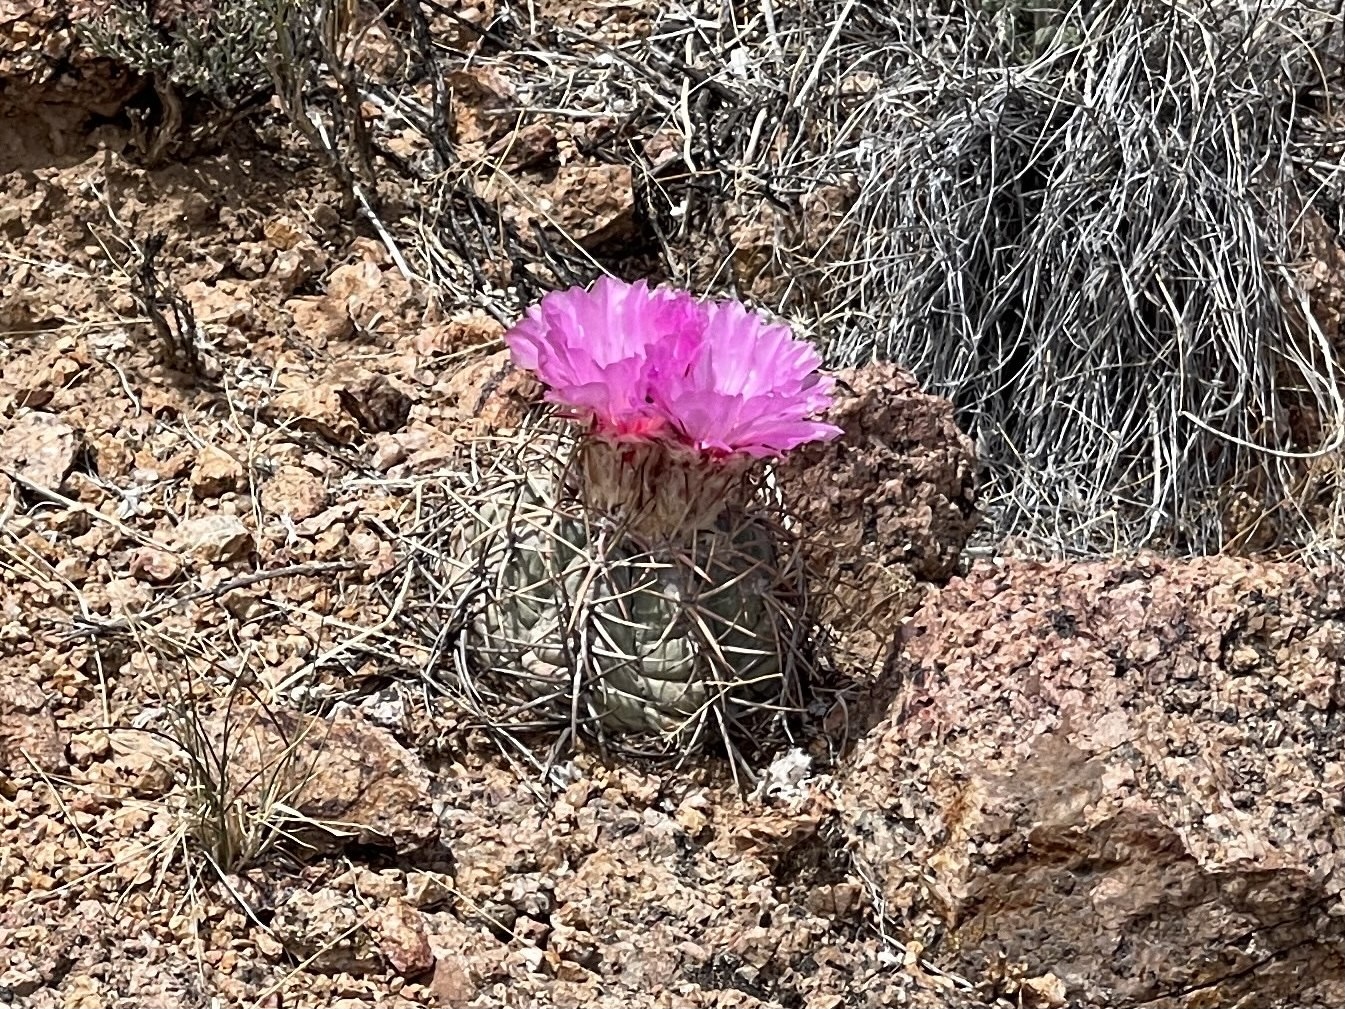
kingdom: Plantae
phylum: Tracheophyta
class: Magnoliopsida
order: Caryophyllales
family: Cactaceae
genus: Echinocactus
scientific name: Echinocactus horizonthalonius
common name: Devilshead
